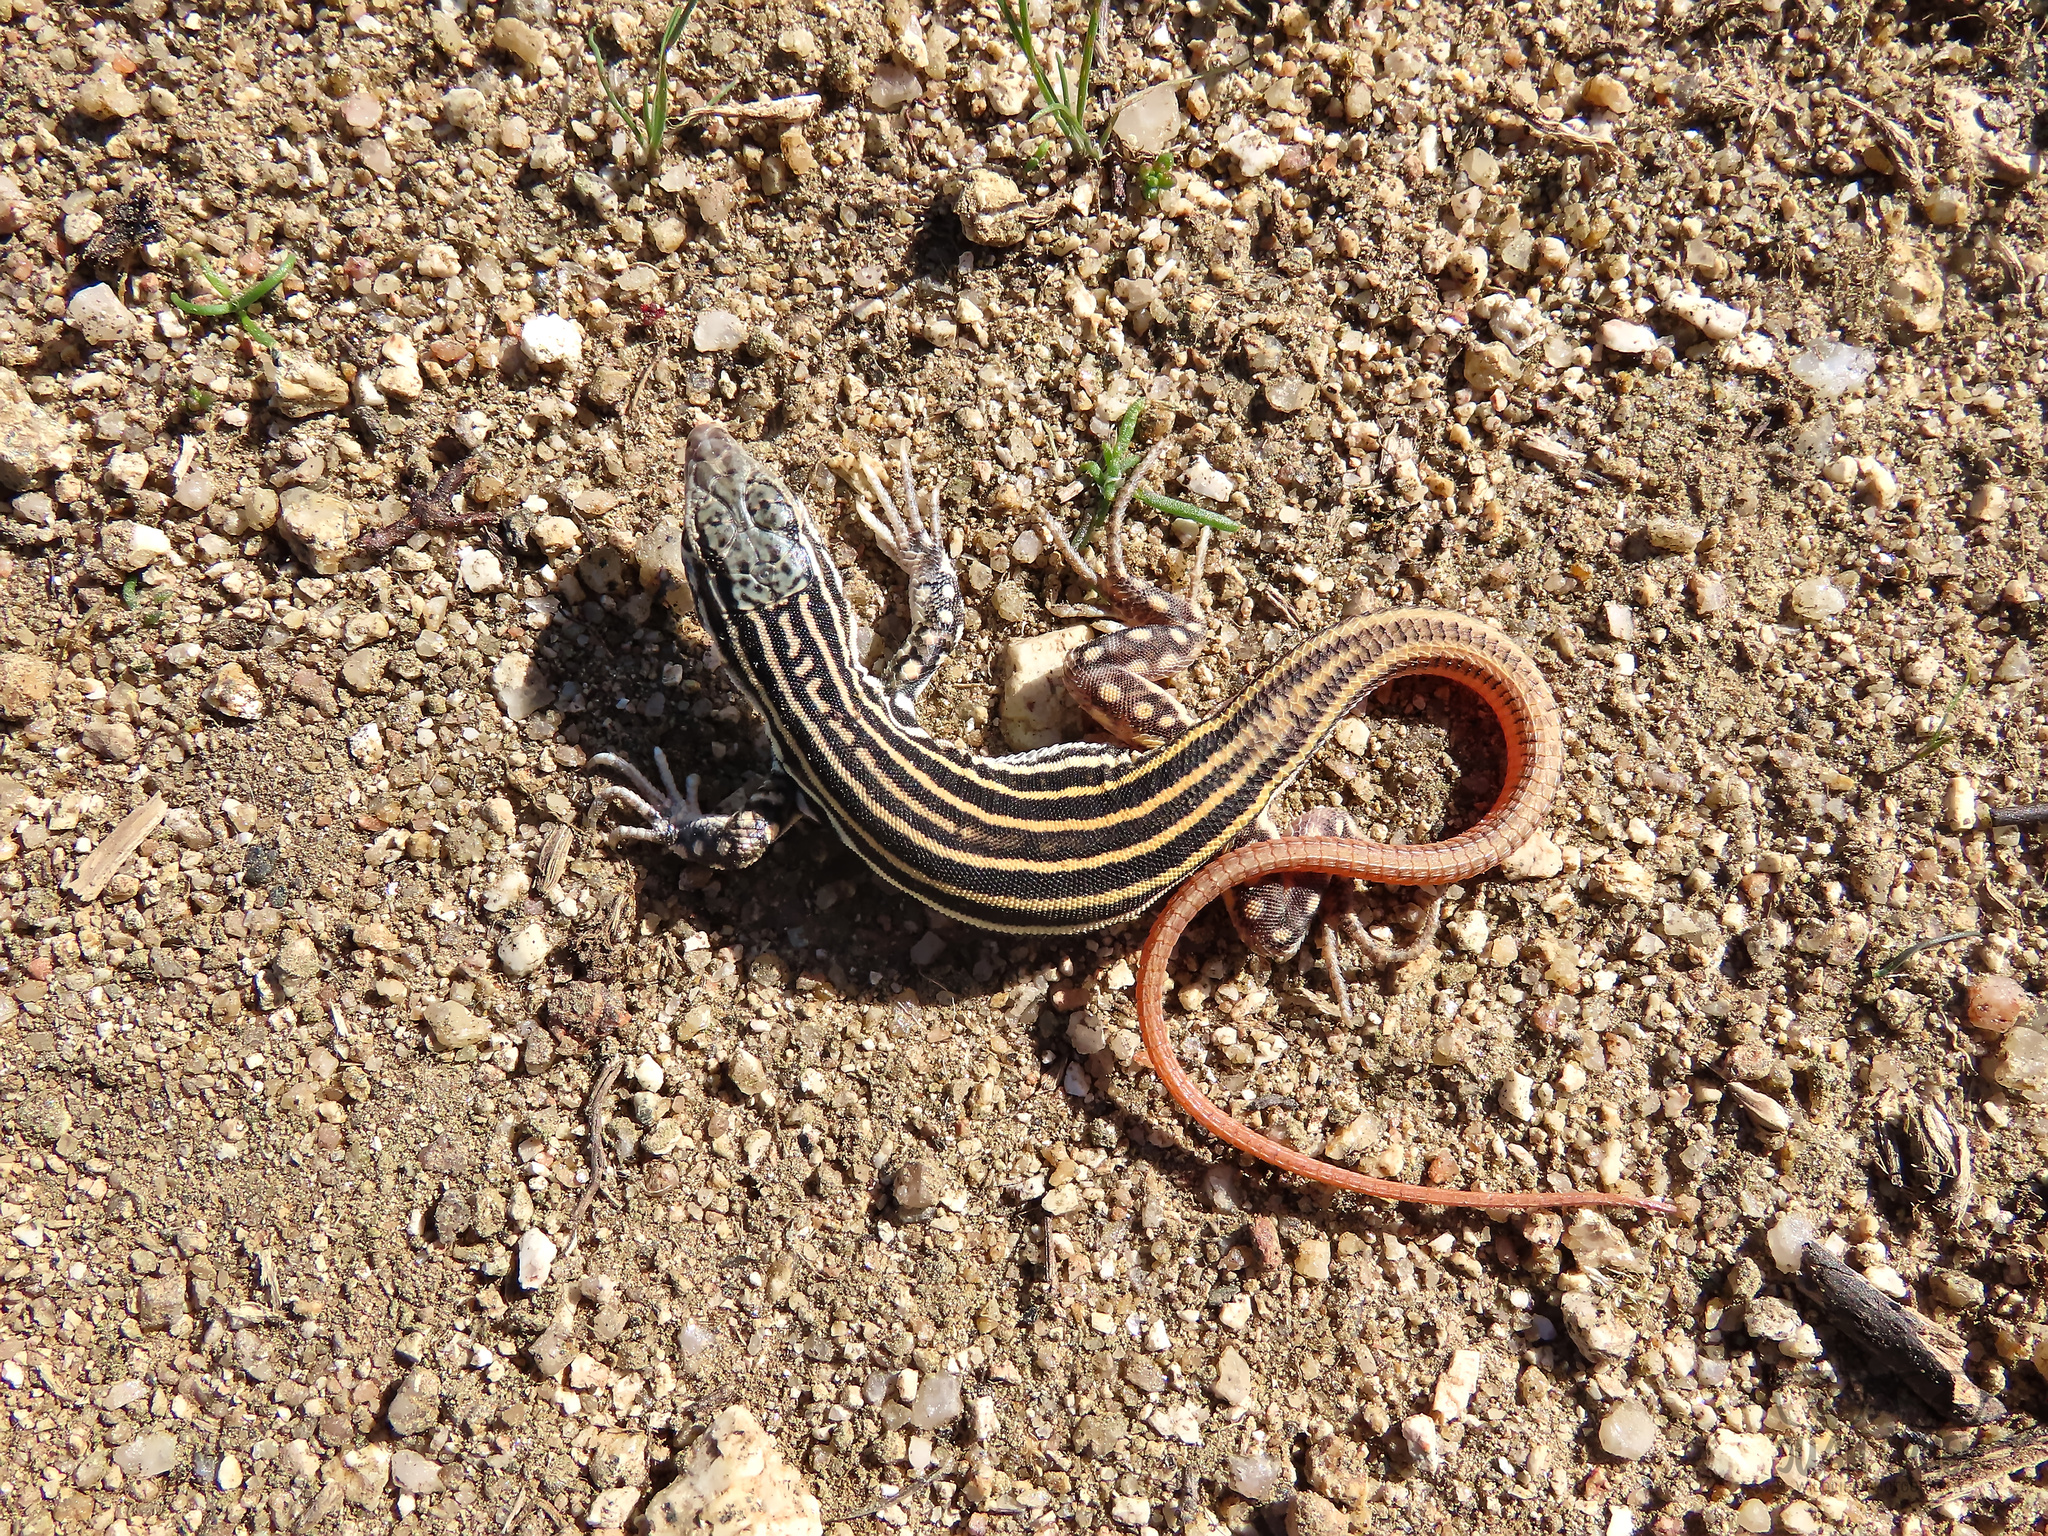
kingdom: Animalia
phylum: Chordata
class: Squamata
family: Lacertidae
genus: Acanthodactylus
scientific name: Acanthodactylus erythrurus
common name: Spiny-footed lizard
